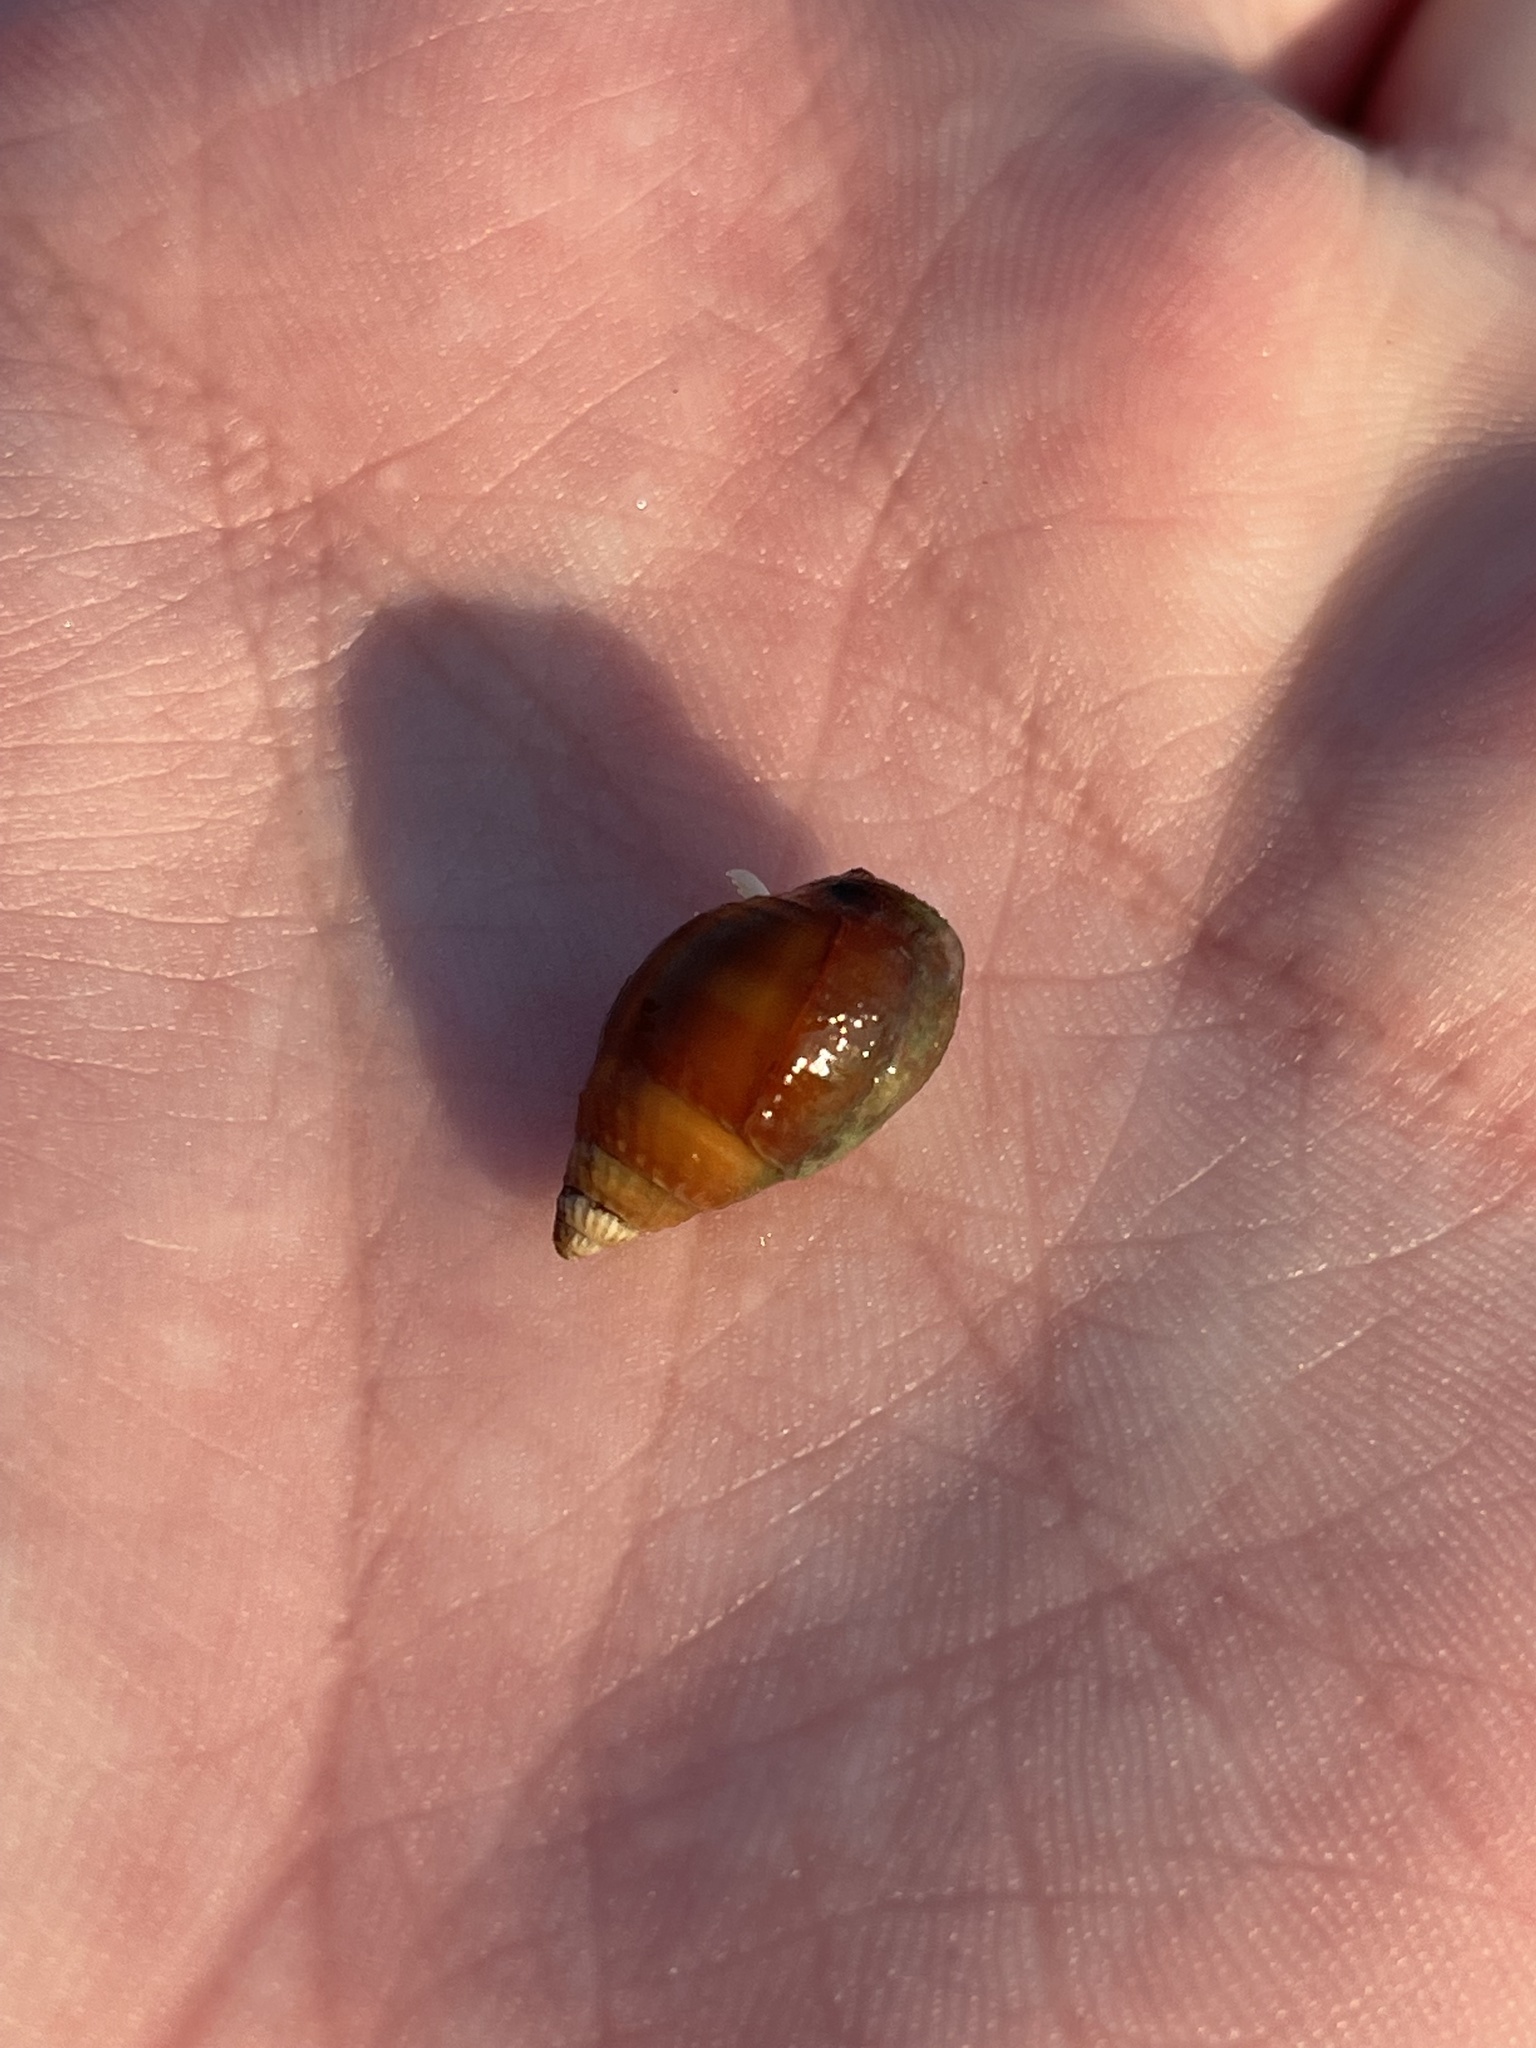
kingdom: Animalia
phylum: Mollusca
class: Gastropoda
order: Neogastropoda
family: Nassariidae
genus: Ilyanassa
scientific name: Ilyanassa obsoleta
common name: Eastern mudsnail
